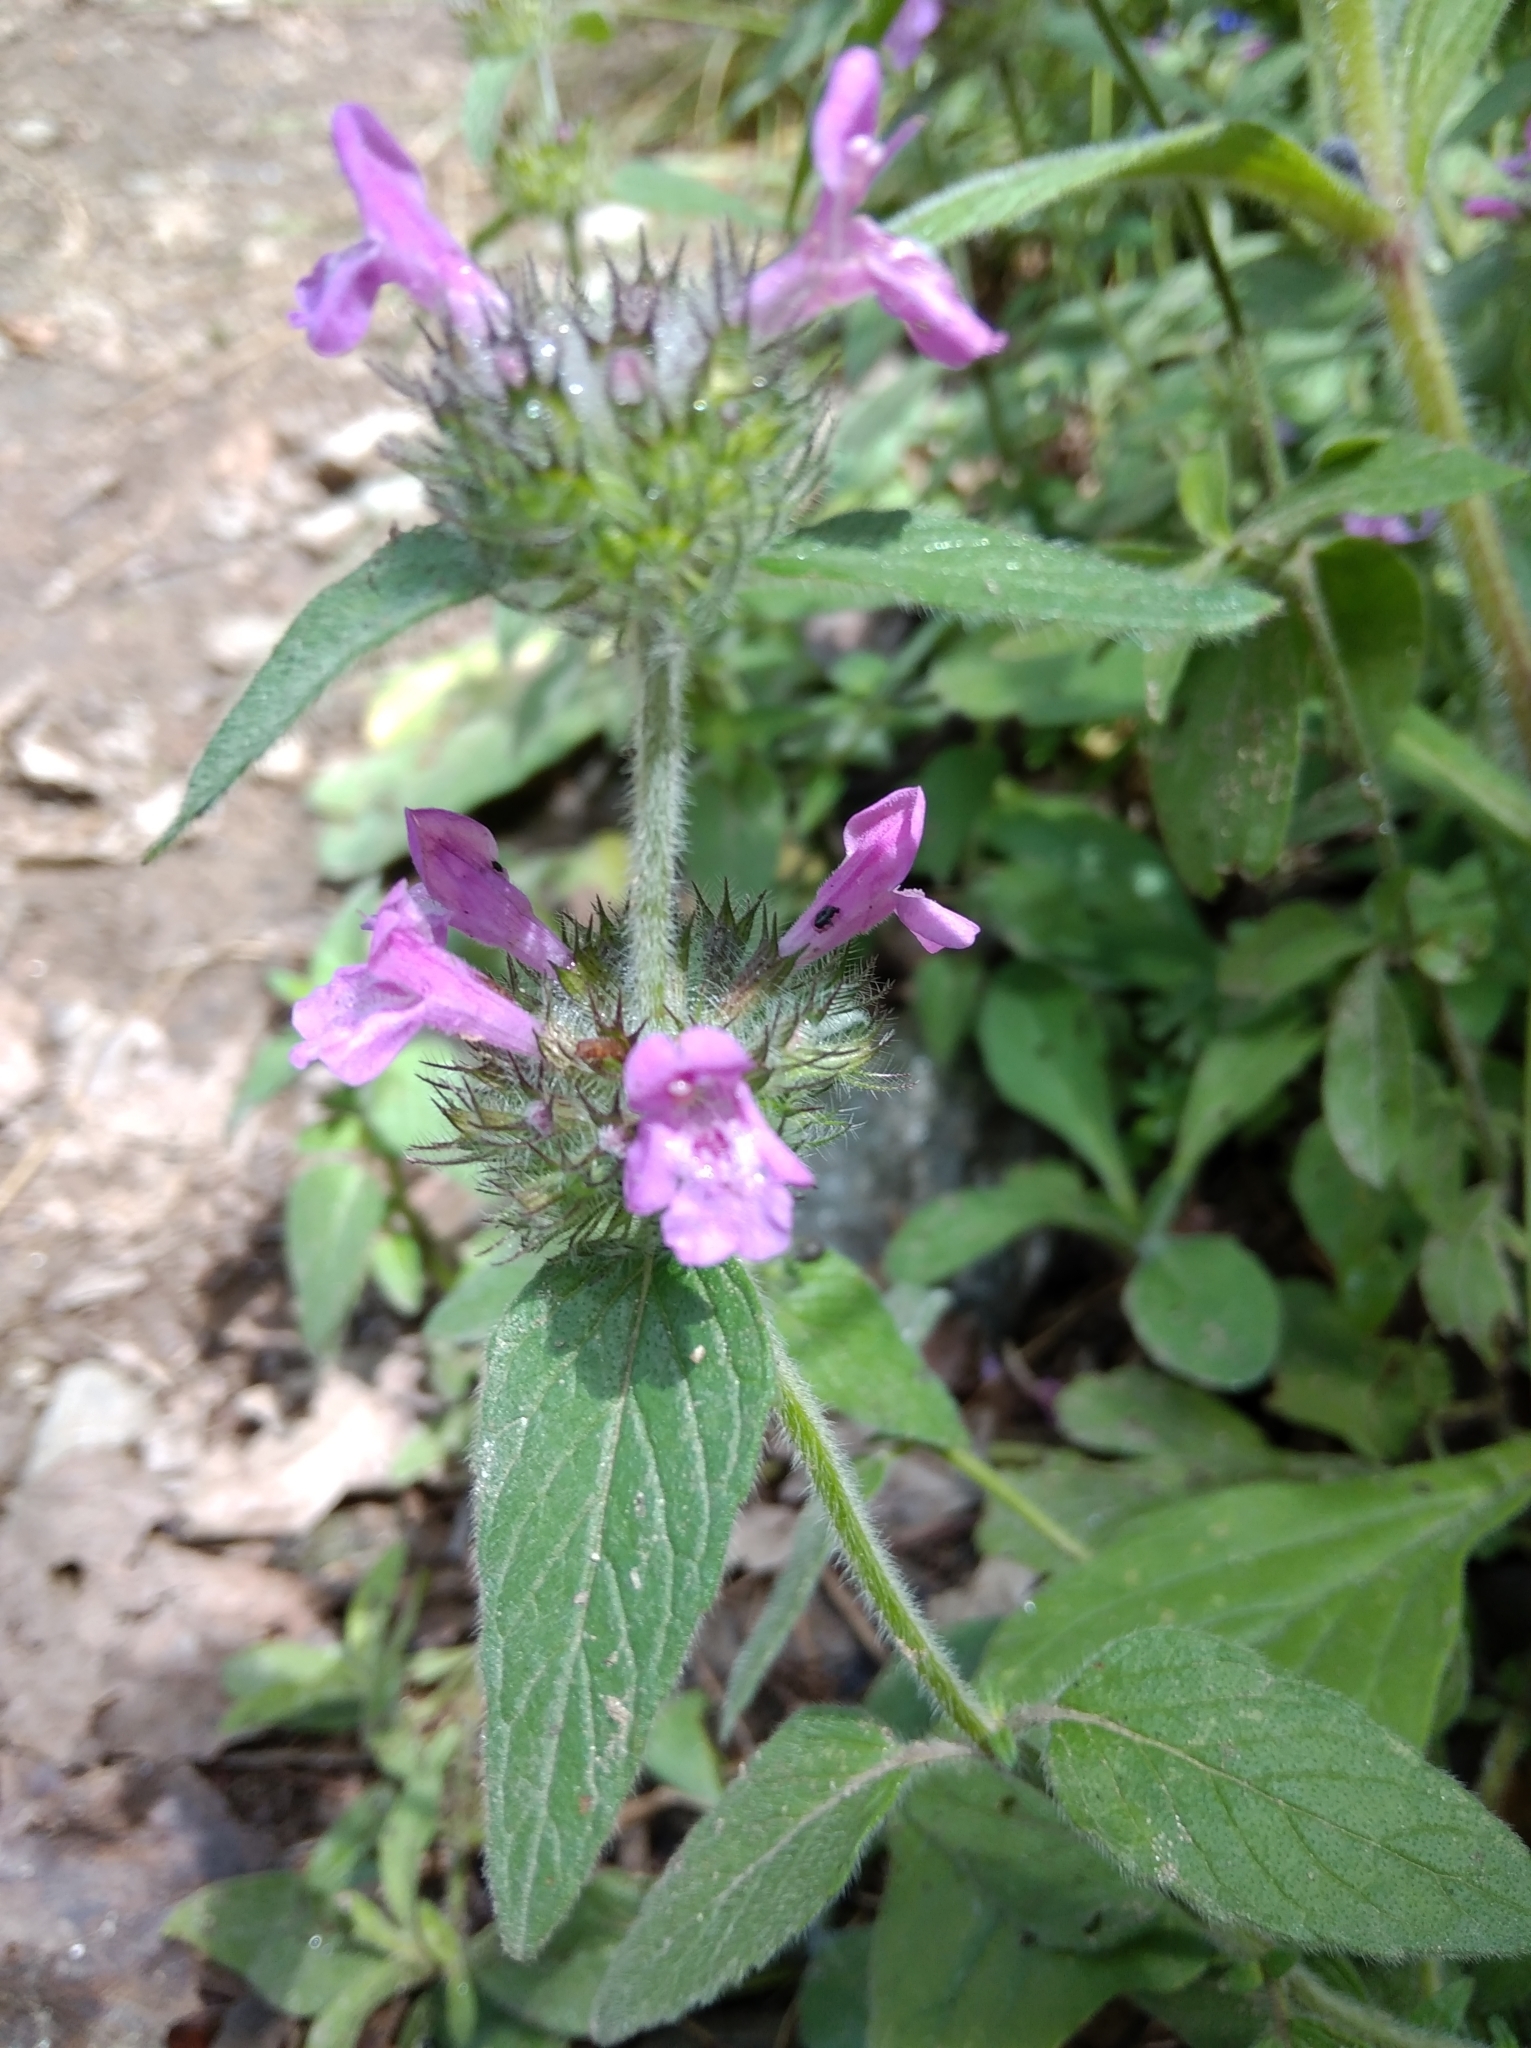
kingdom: Plantae
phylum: Tracheophyta
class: Magnoliopsida
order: Lamiales
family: Lamiaceae
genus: Clinopodium
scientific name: Clinopodium vulgare
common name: Wild basil
